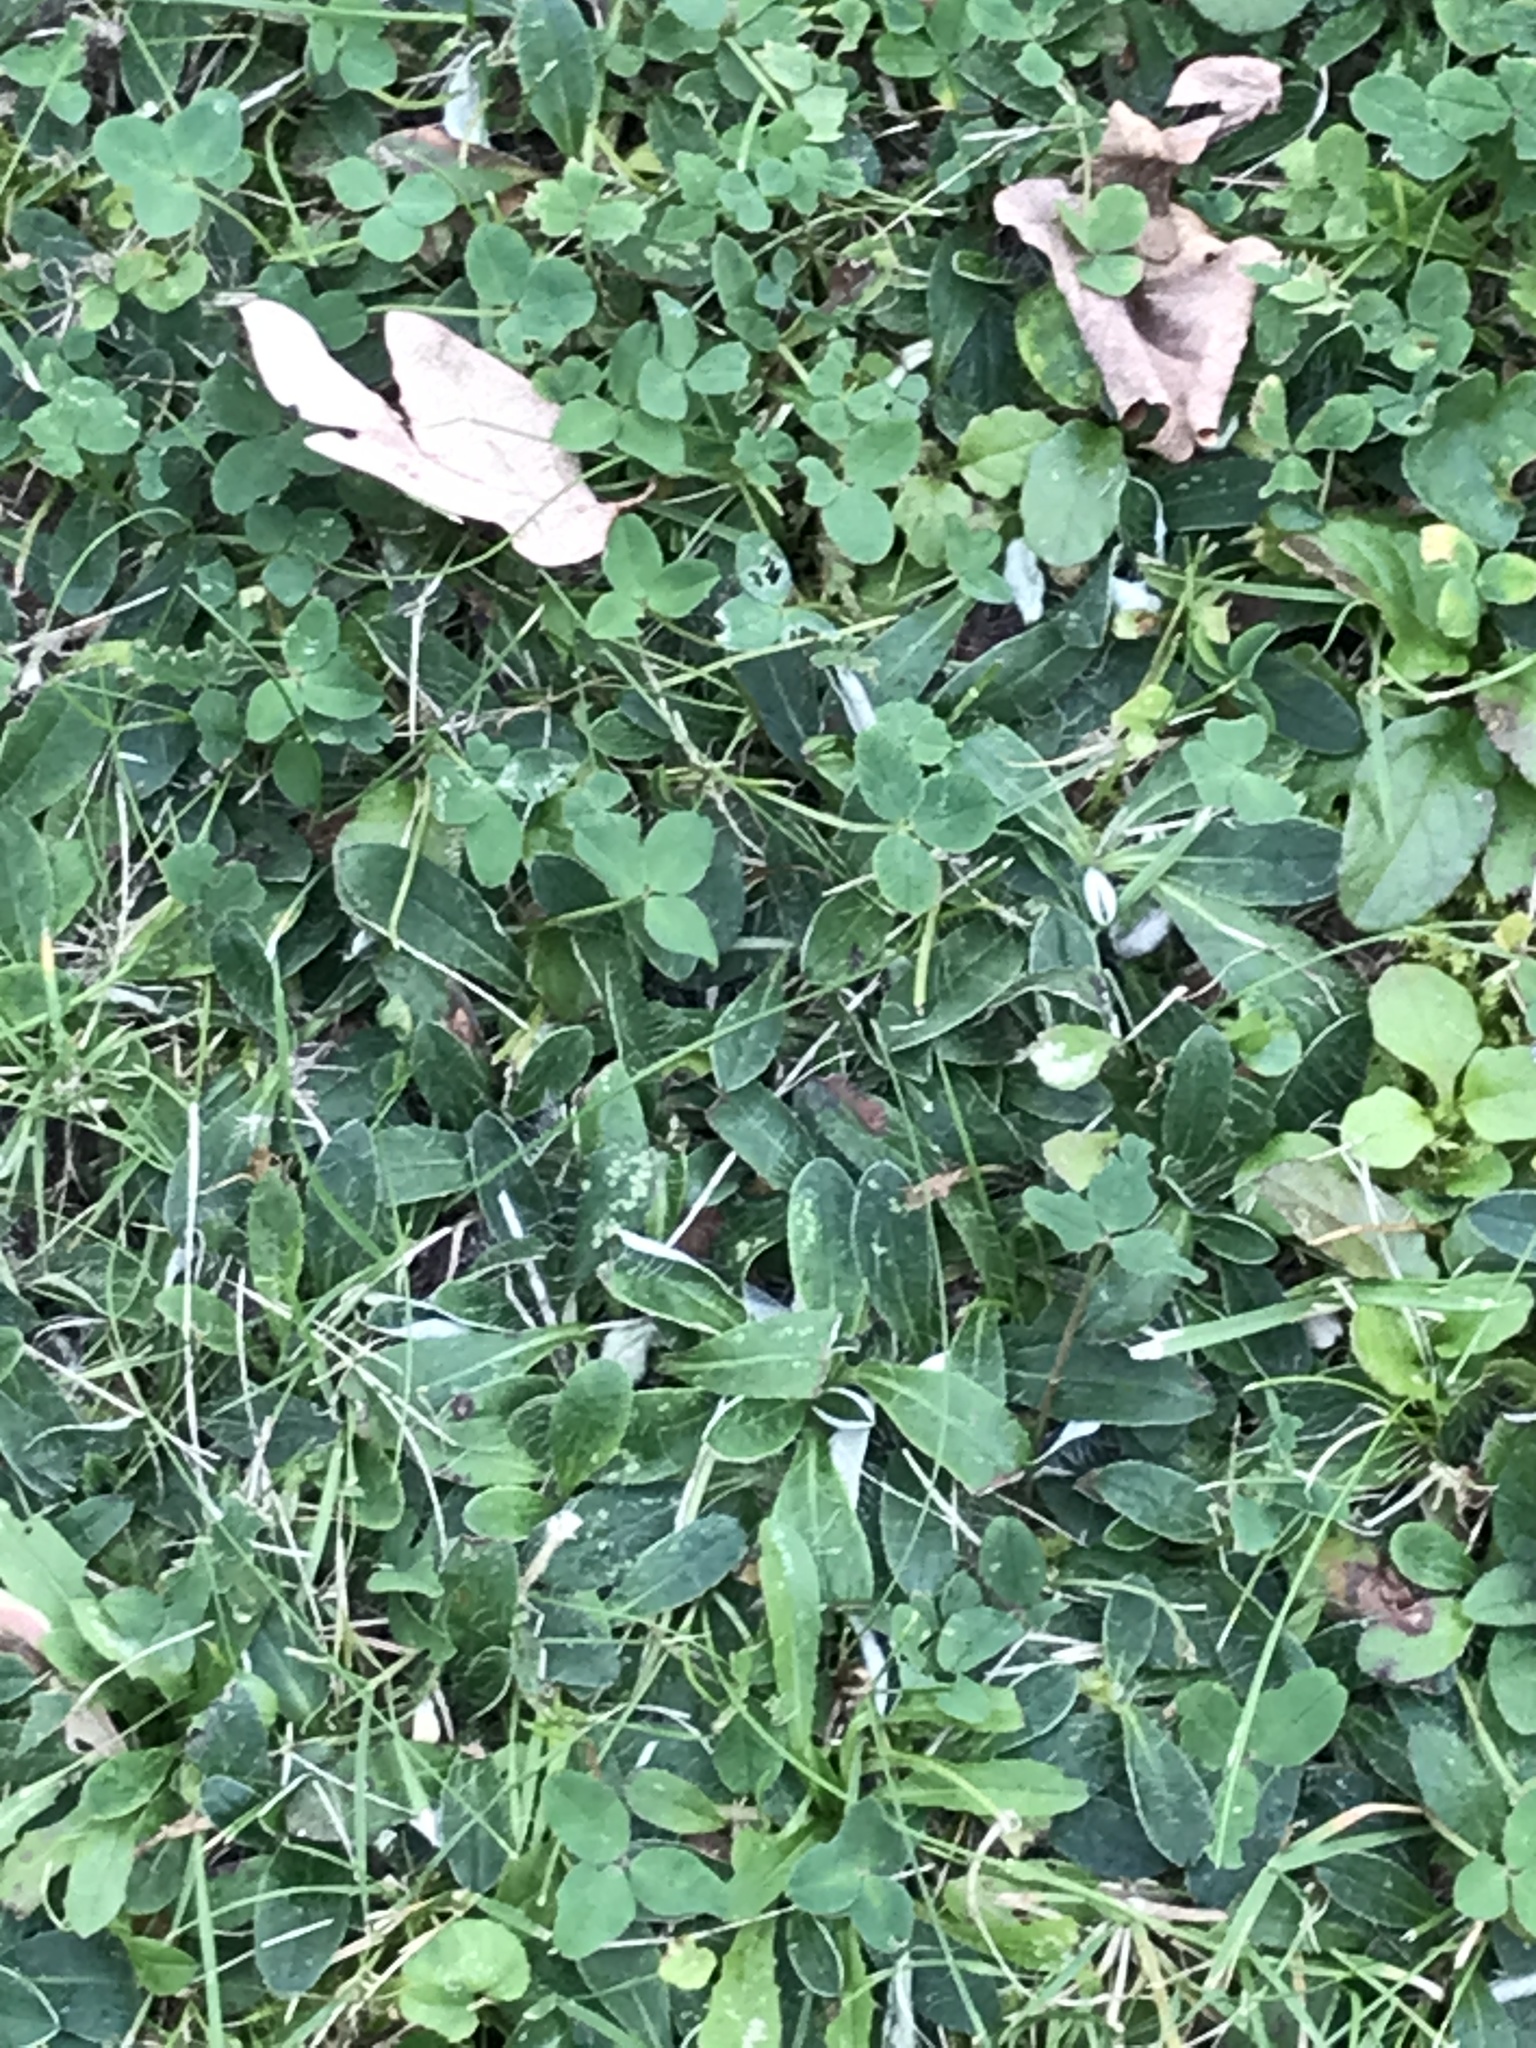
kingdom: Plantae
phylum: Tracheophyta
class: Magnoliopsida
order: Asterales
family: Asteraceae
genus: Pilosella
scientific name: Pilosella officinarum
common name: Mouse-ear hawkweed
